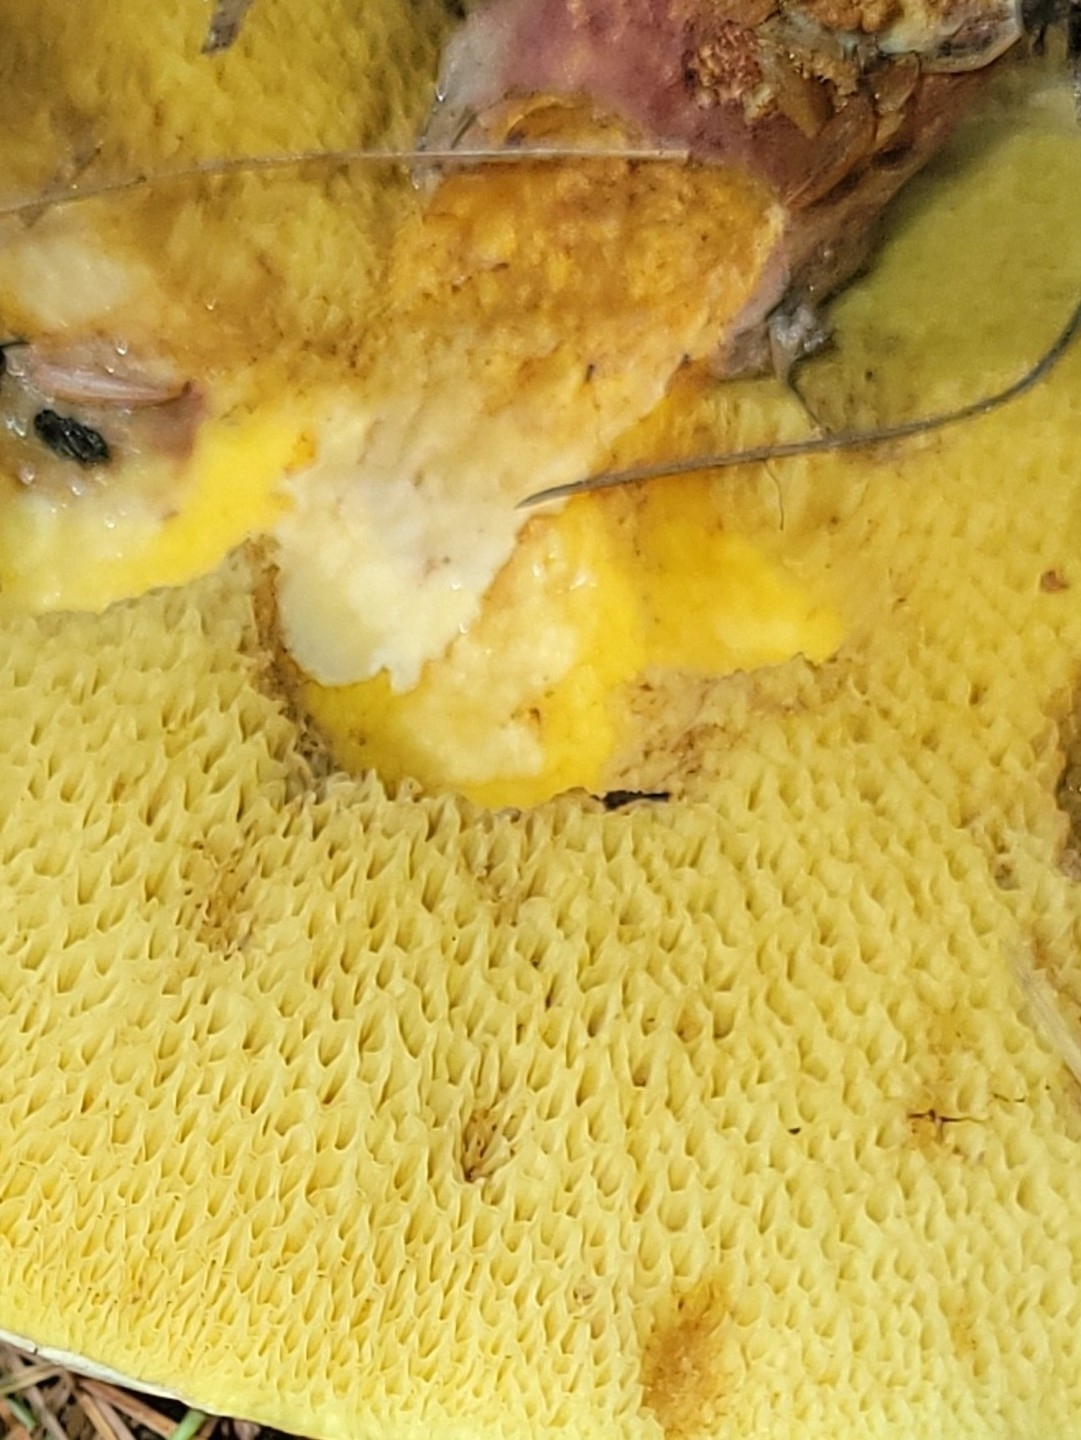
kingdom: Fungi
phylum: Basidiomycota
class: Agaricomycetes
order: Boletales
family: Suillaceae
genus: Suillus
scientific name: Suillus spraguei
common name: Painted suillus
